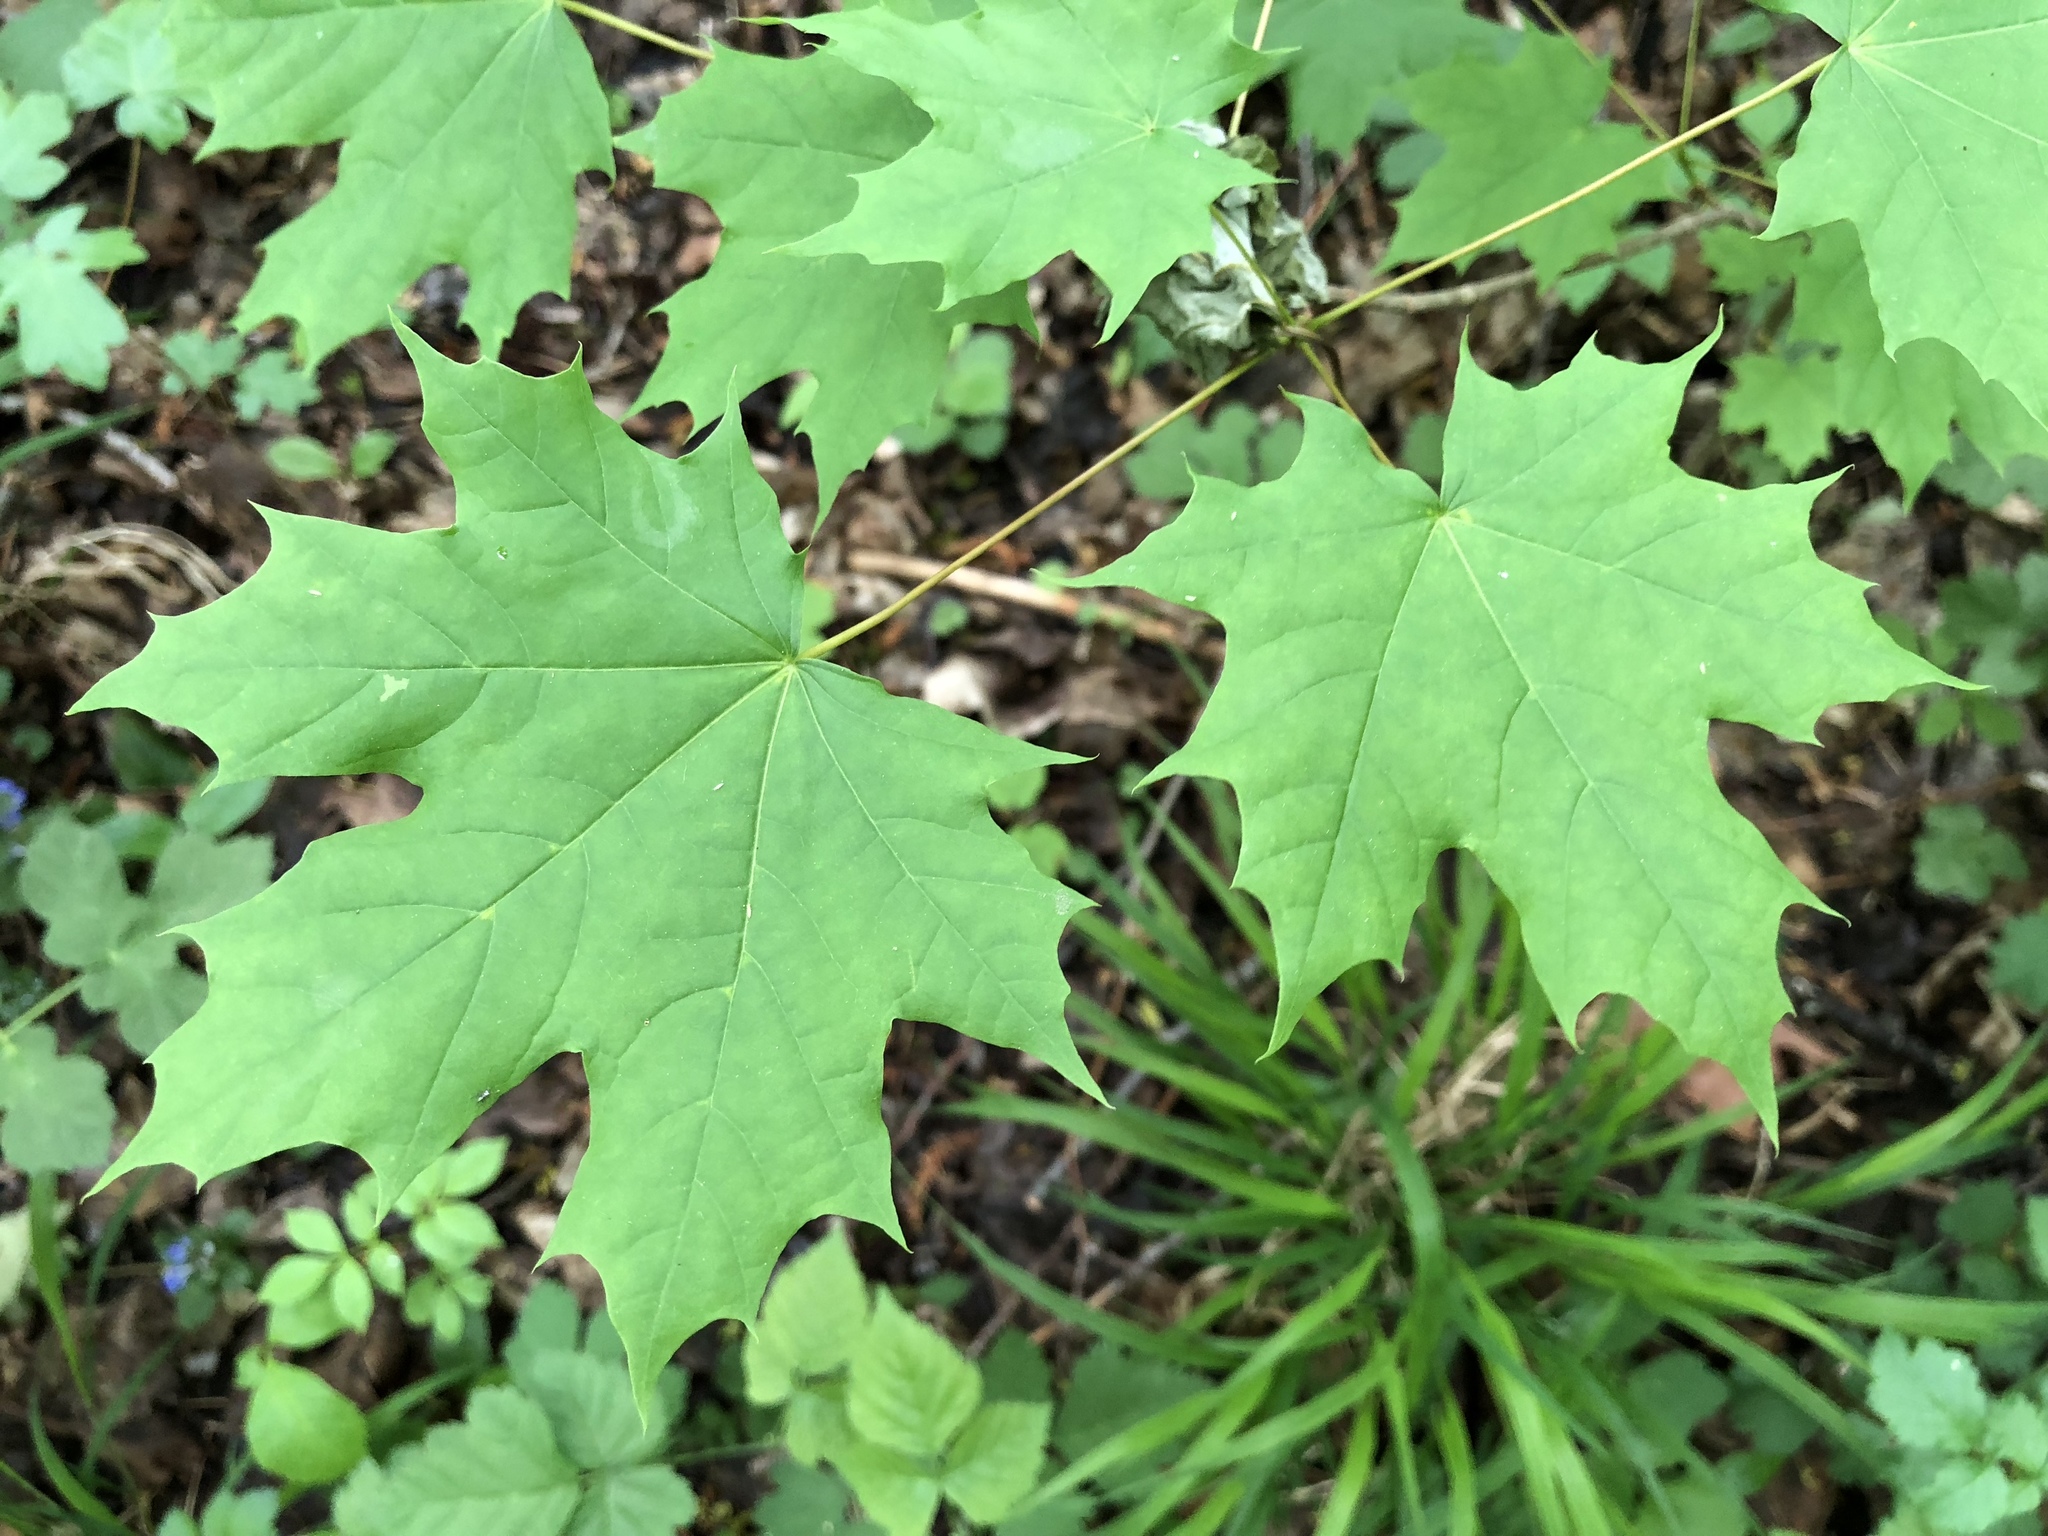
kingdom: Plantae
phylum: Tracheophyta
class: Magnoliopsida
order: Sapindales
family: Sapindaceae
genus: Acer
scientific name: Acer platanoides
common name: Norway maple
